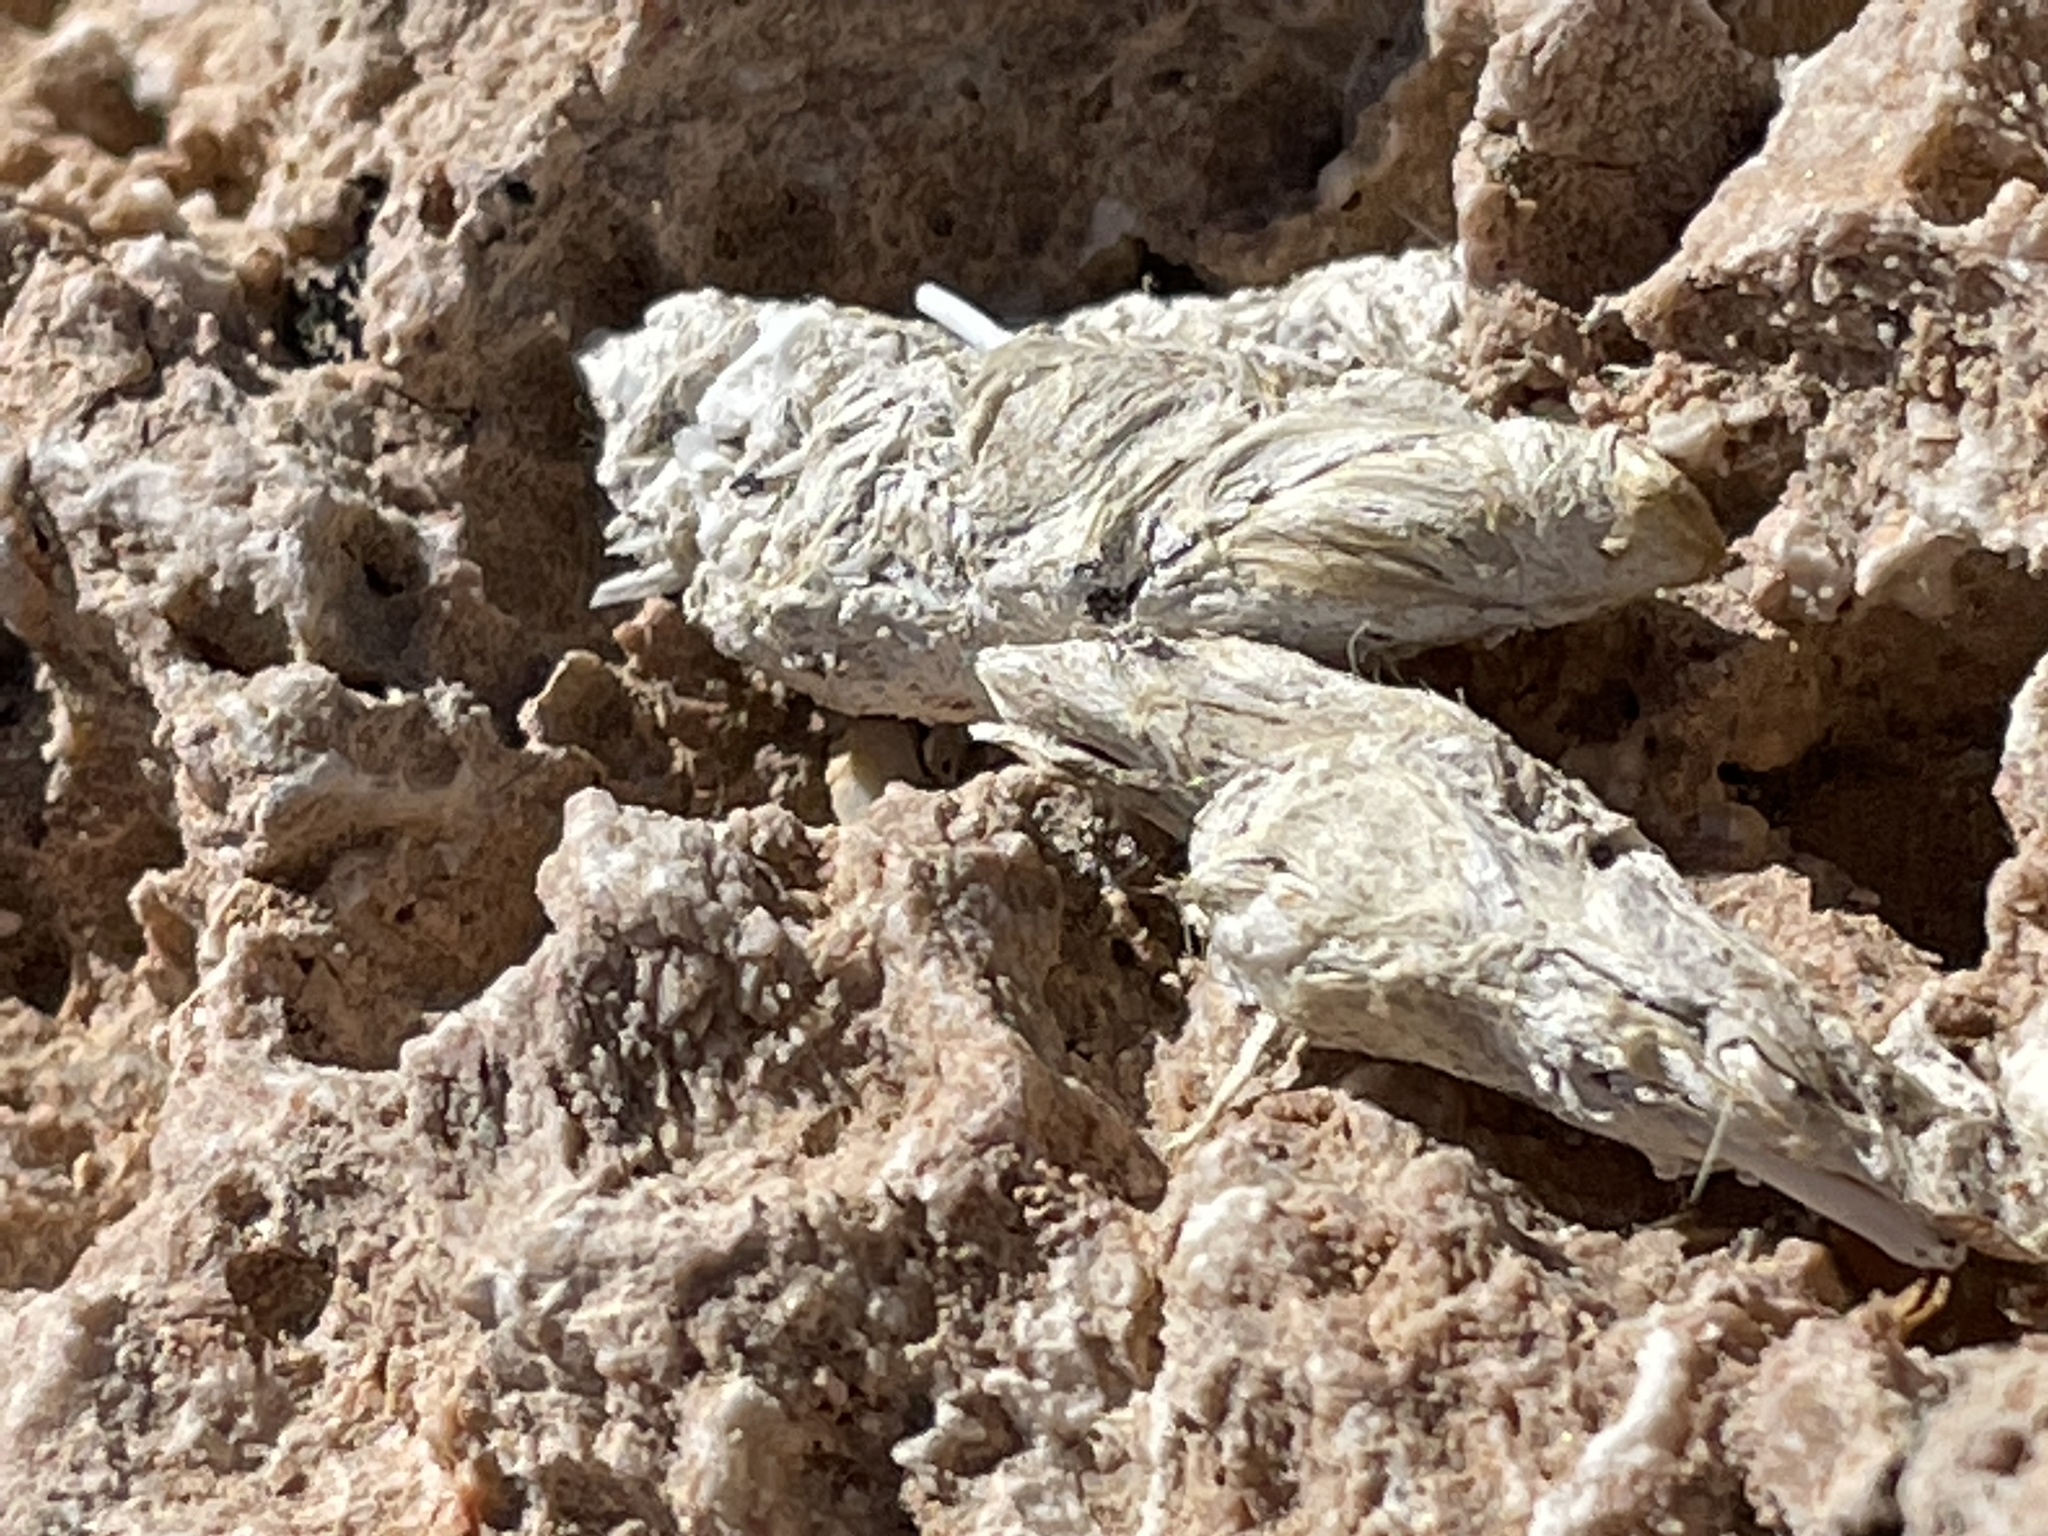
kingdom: Animalia
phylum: Chordata
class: Mammalia
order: Carnivora
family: Canidae
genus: Vulpes
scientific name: Vulpes macrotis
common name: Kit fox
